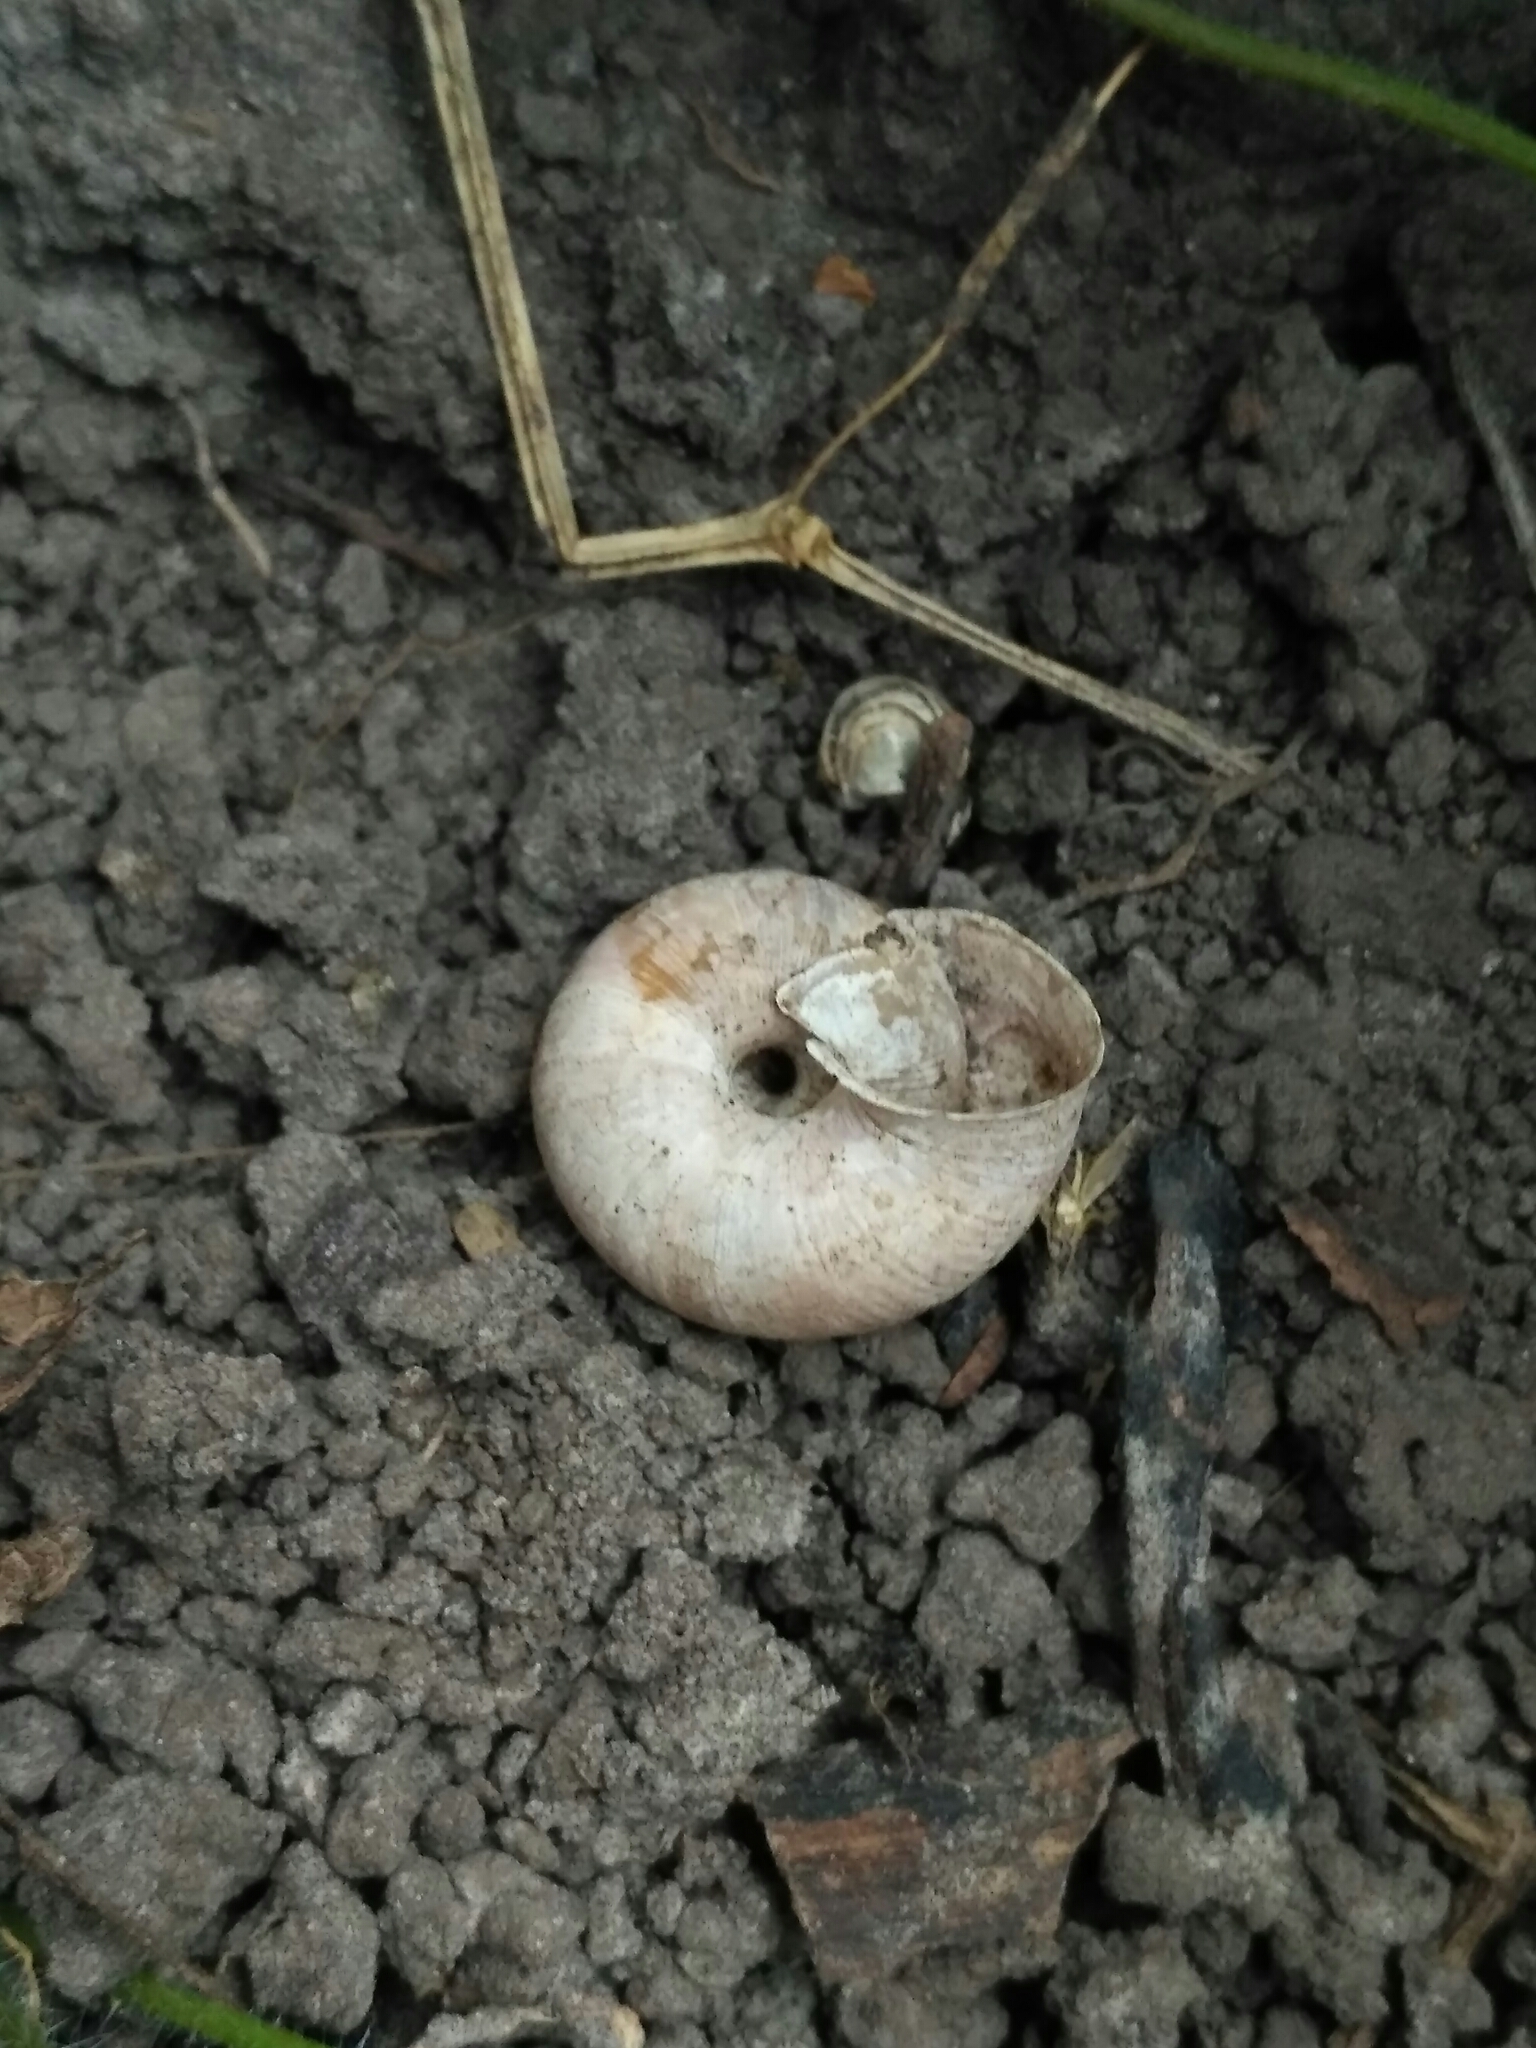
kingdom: Animalia
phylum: Mollusca
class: Gastropoda
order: Stylommatophora
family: Hygromiidae
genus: Euomphalia
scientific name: Euomphalia strigella
